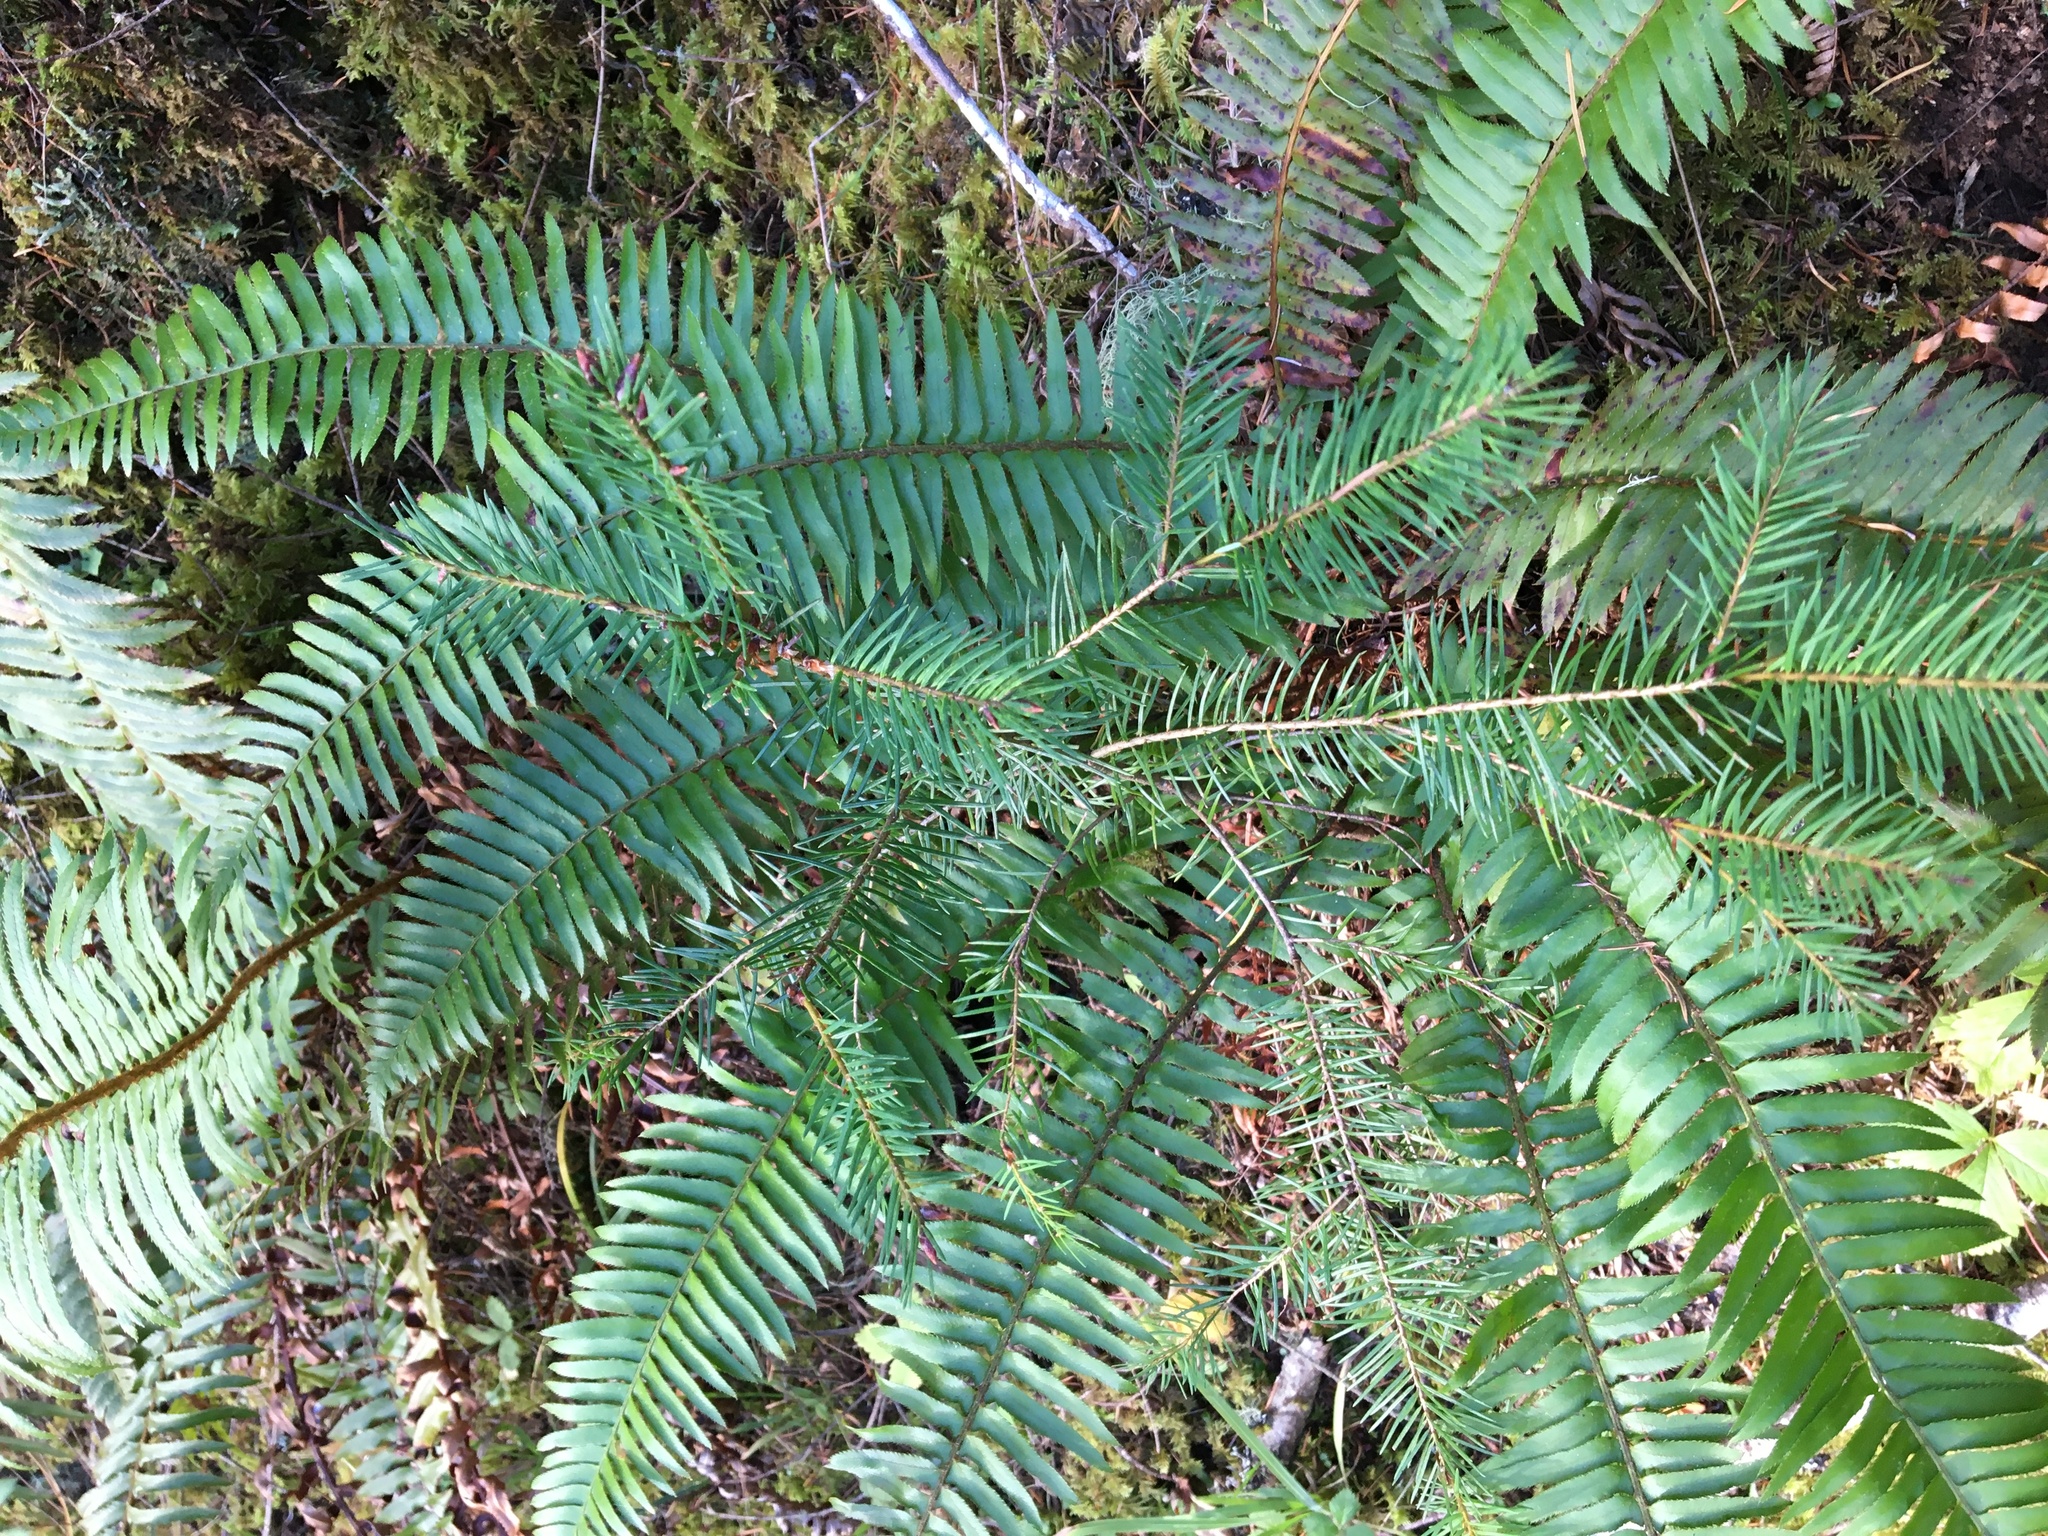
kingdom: Plantae
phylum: Tracheophyta
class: Polypodiopsida
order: Polypodiales
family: Dryopteridaceae
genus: Polystichum
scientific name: Polystichum munitum
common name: Western sword-fern
